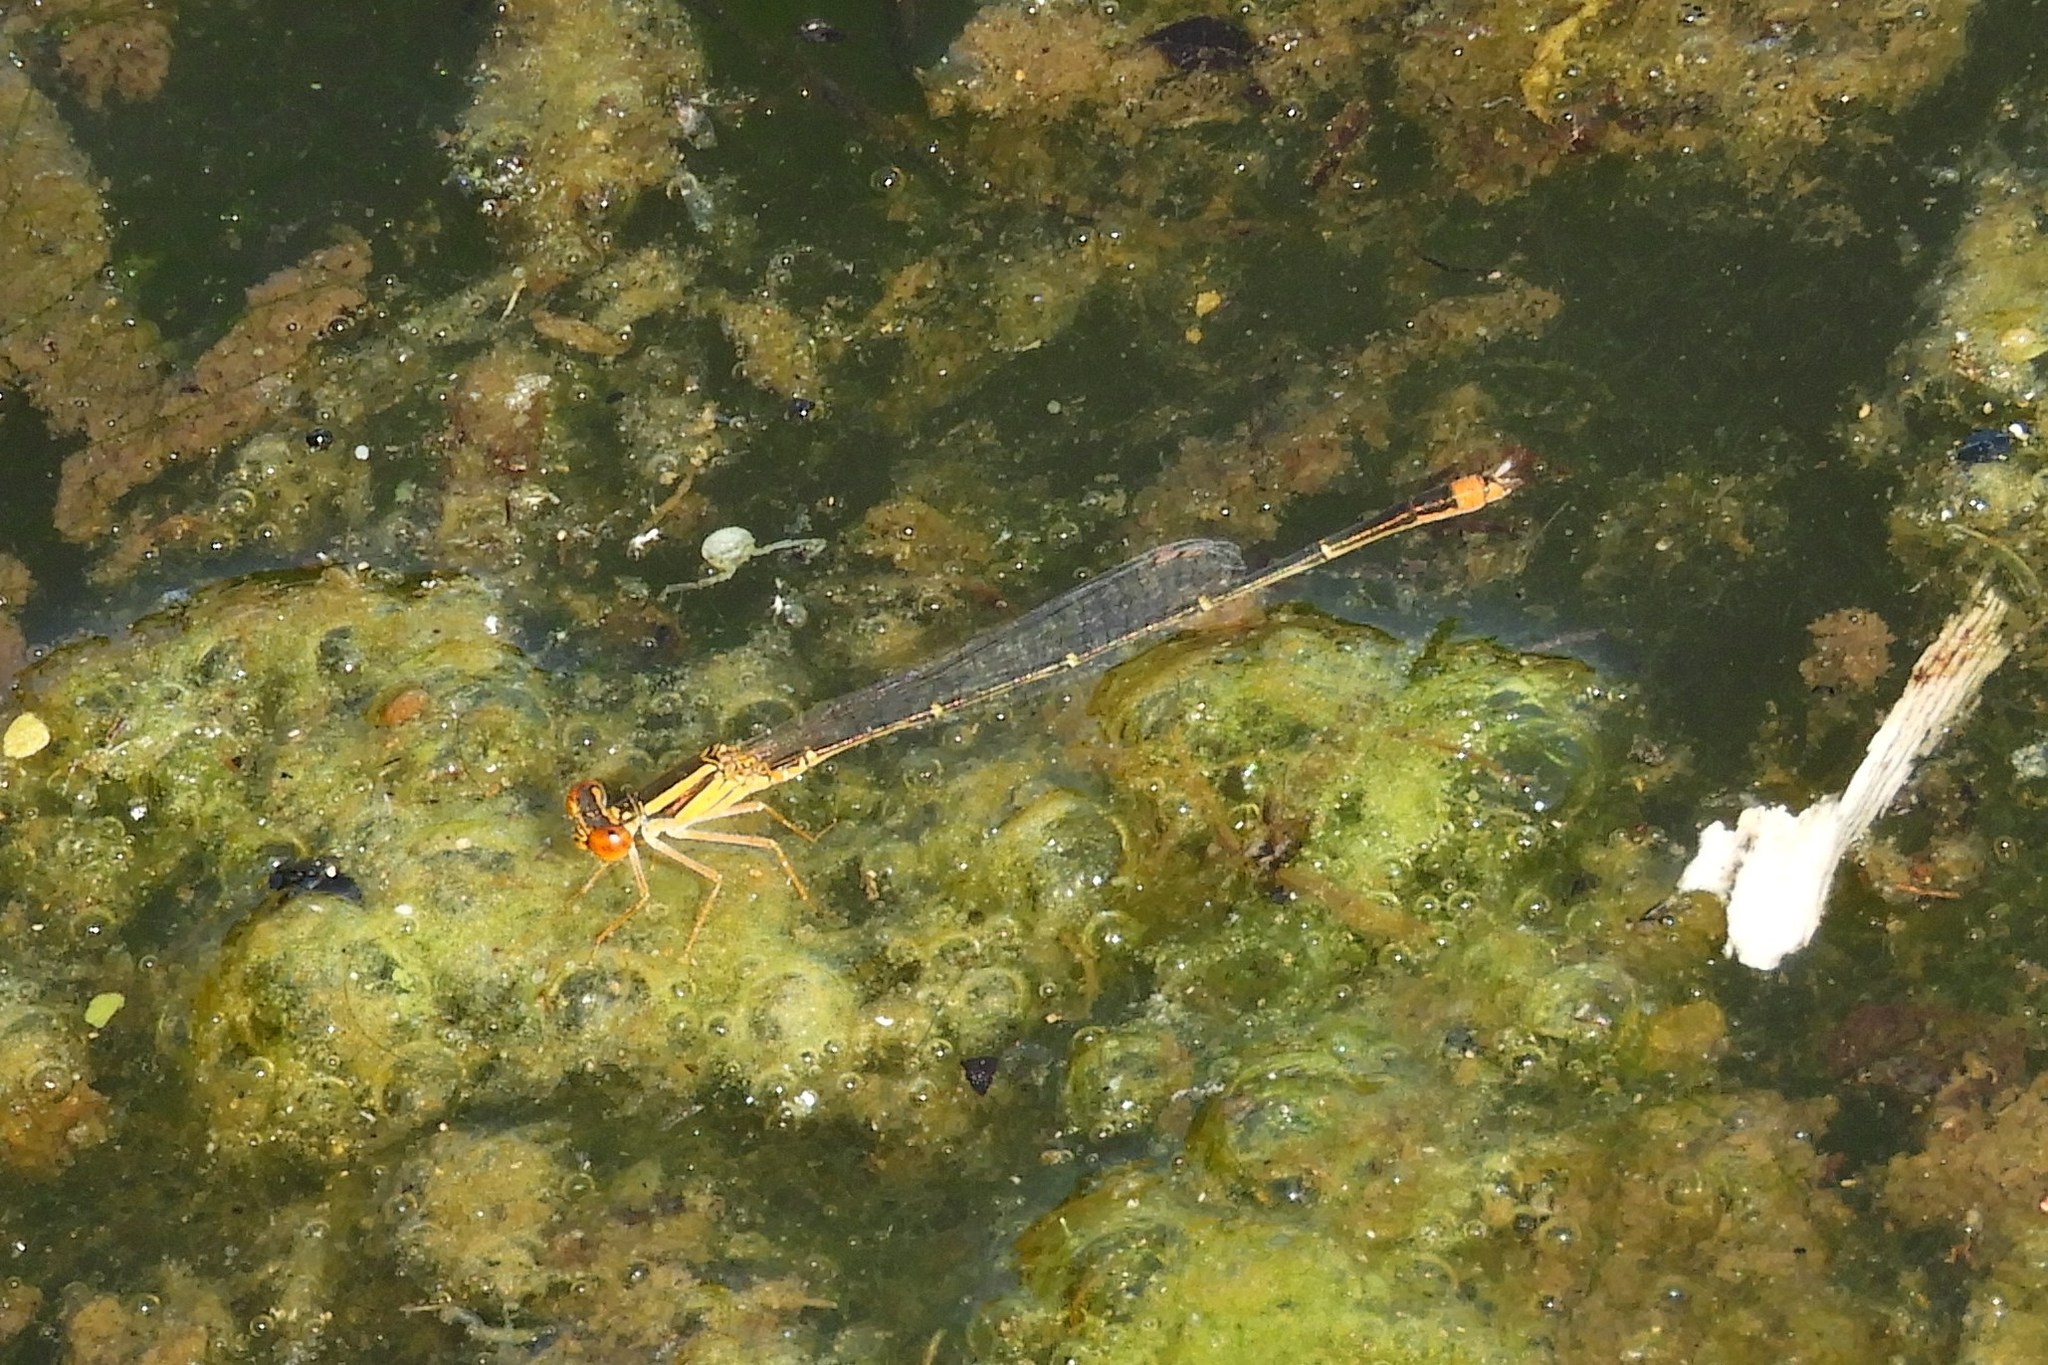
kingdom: Animalia
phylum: Arthropoda
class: Insecta
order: Odonata
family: Coenagrionidae
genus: Enallagma
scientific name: Enallagma signatum
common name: Orange bluet
